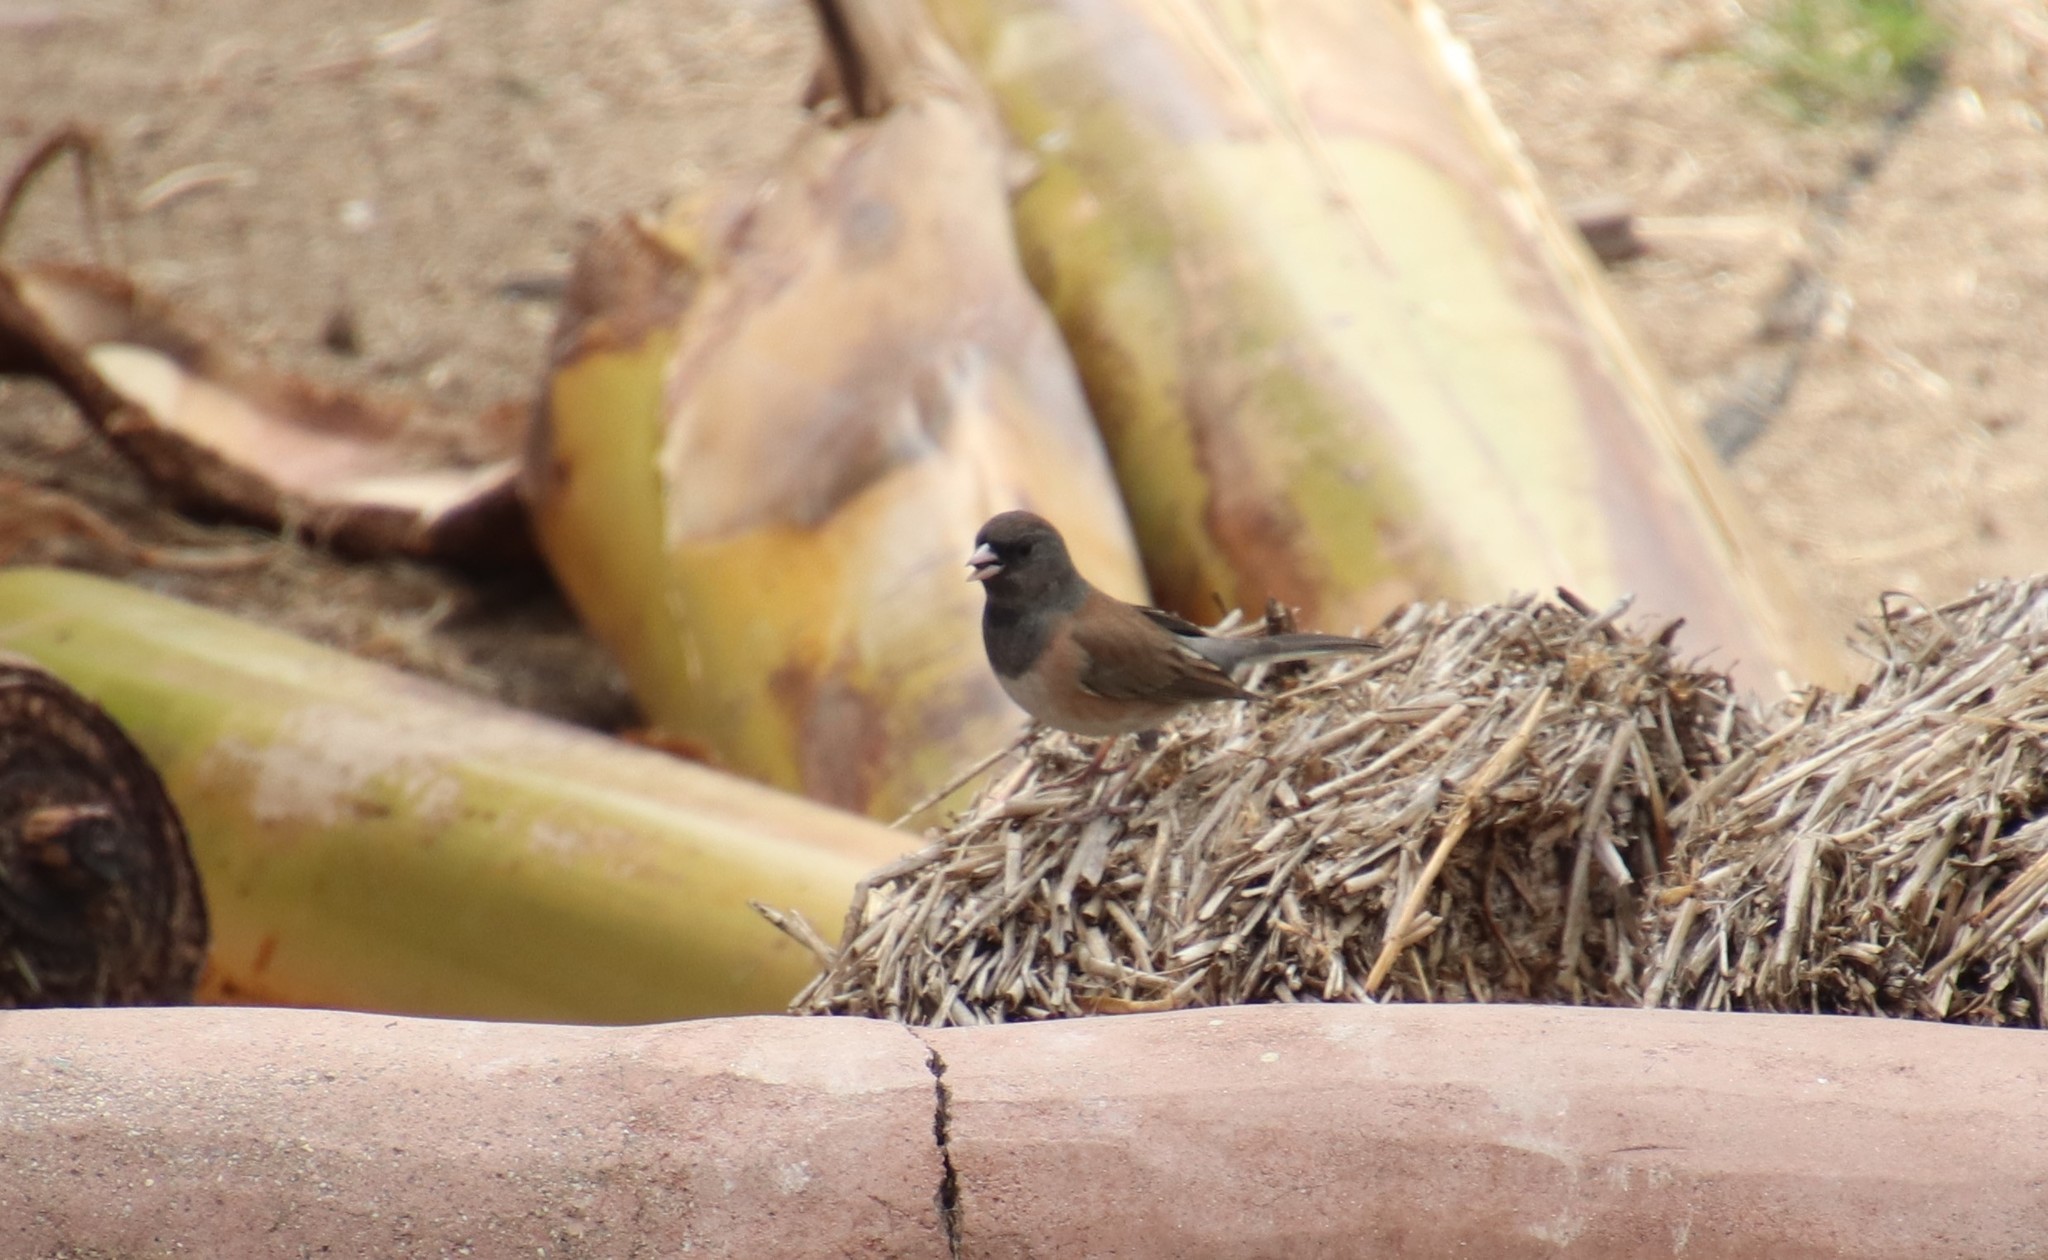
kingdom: Animalia
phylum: Chordata
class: Aves
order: Passeriformes
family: Passerellidae
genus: Junco
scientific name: Junco hyemalis
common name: Dark-eyed junco
